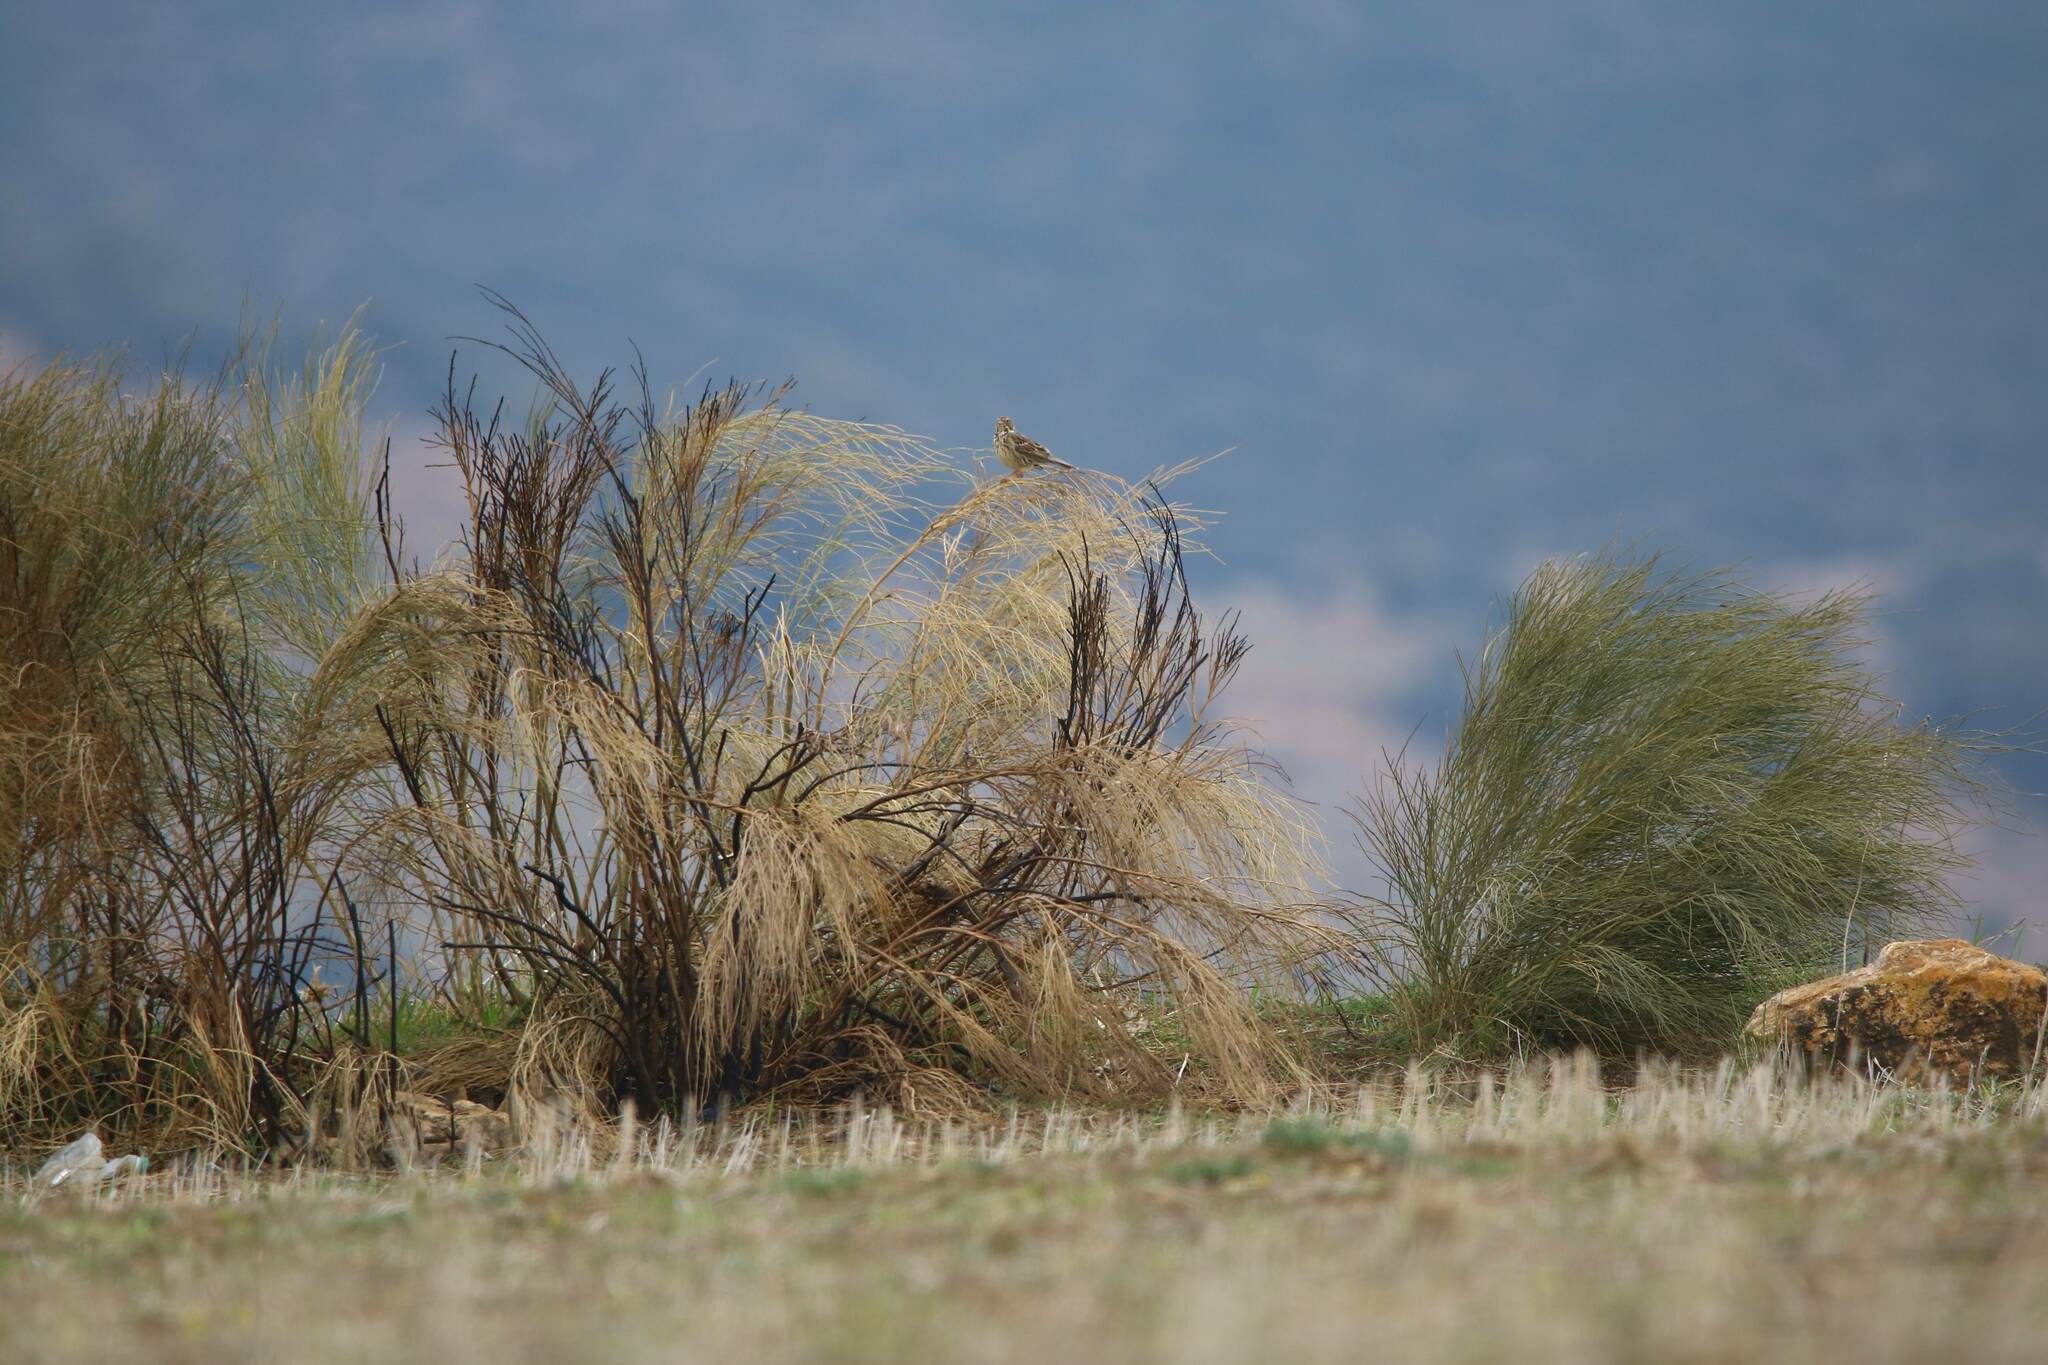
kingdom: Animalia
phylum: Chordata
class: Aves
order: Passeriformes
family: Emberizidae
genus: Emberiza
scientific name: Emberiza calandra
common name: Corn bunting
